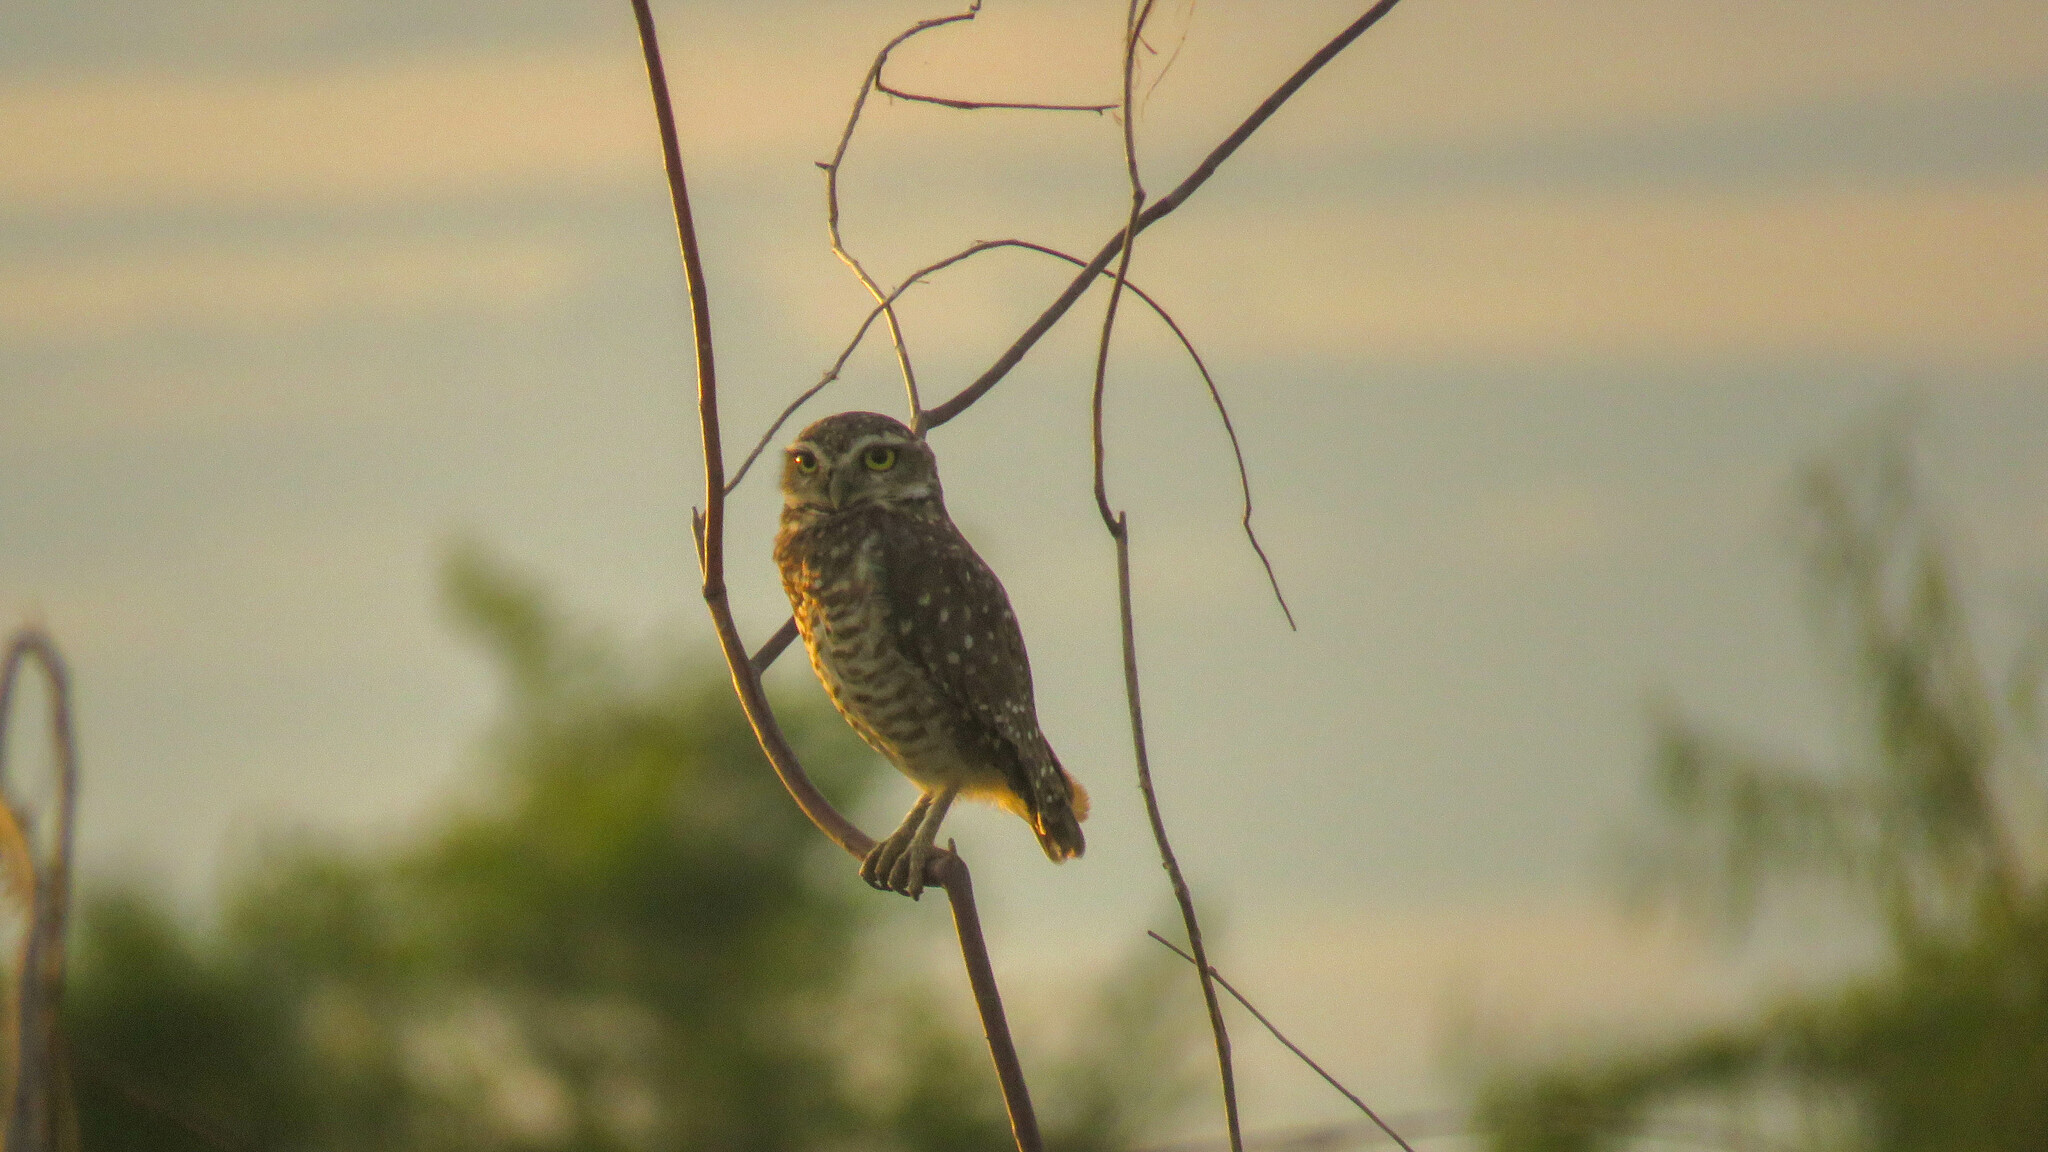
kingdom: Animalia
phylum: Chordata
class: Aves
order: Strigiformes
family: Strigidae
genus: Athene
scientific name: Athene cunicularia
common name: Burrowing owl
